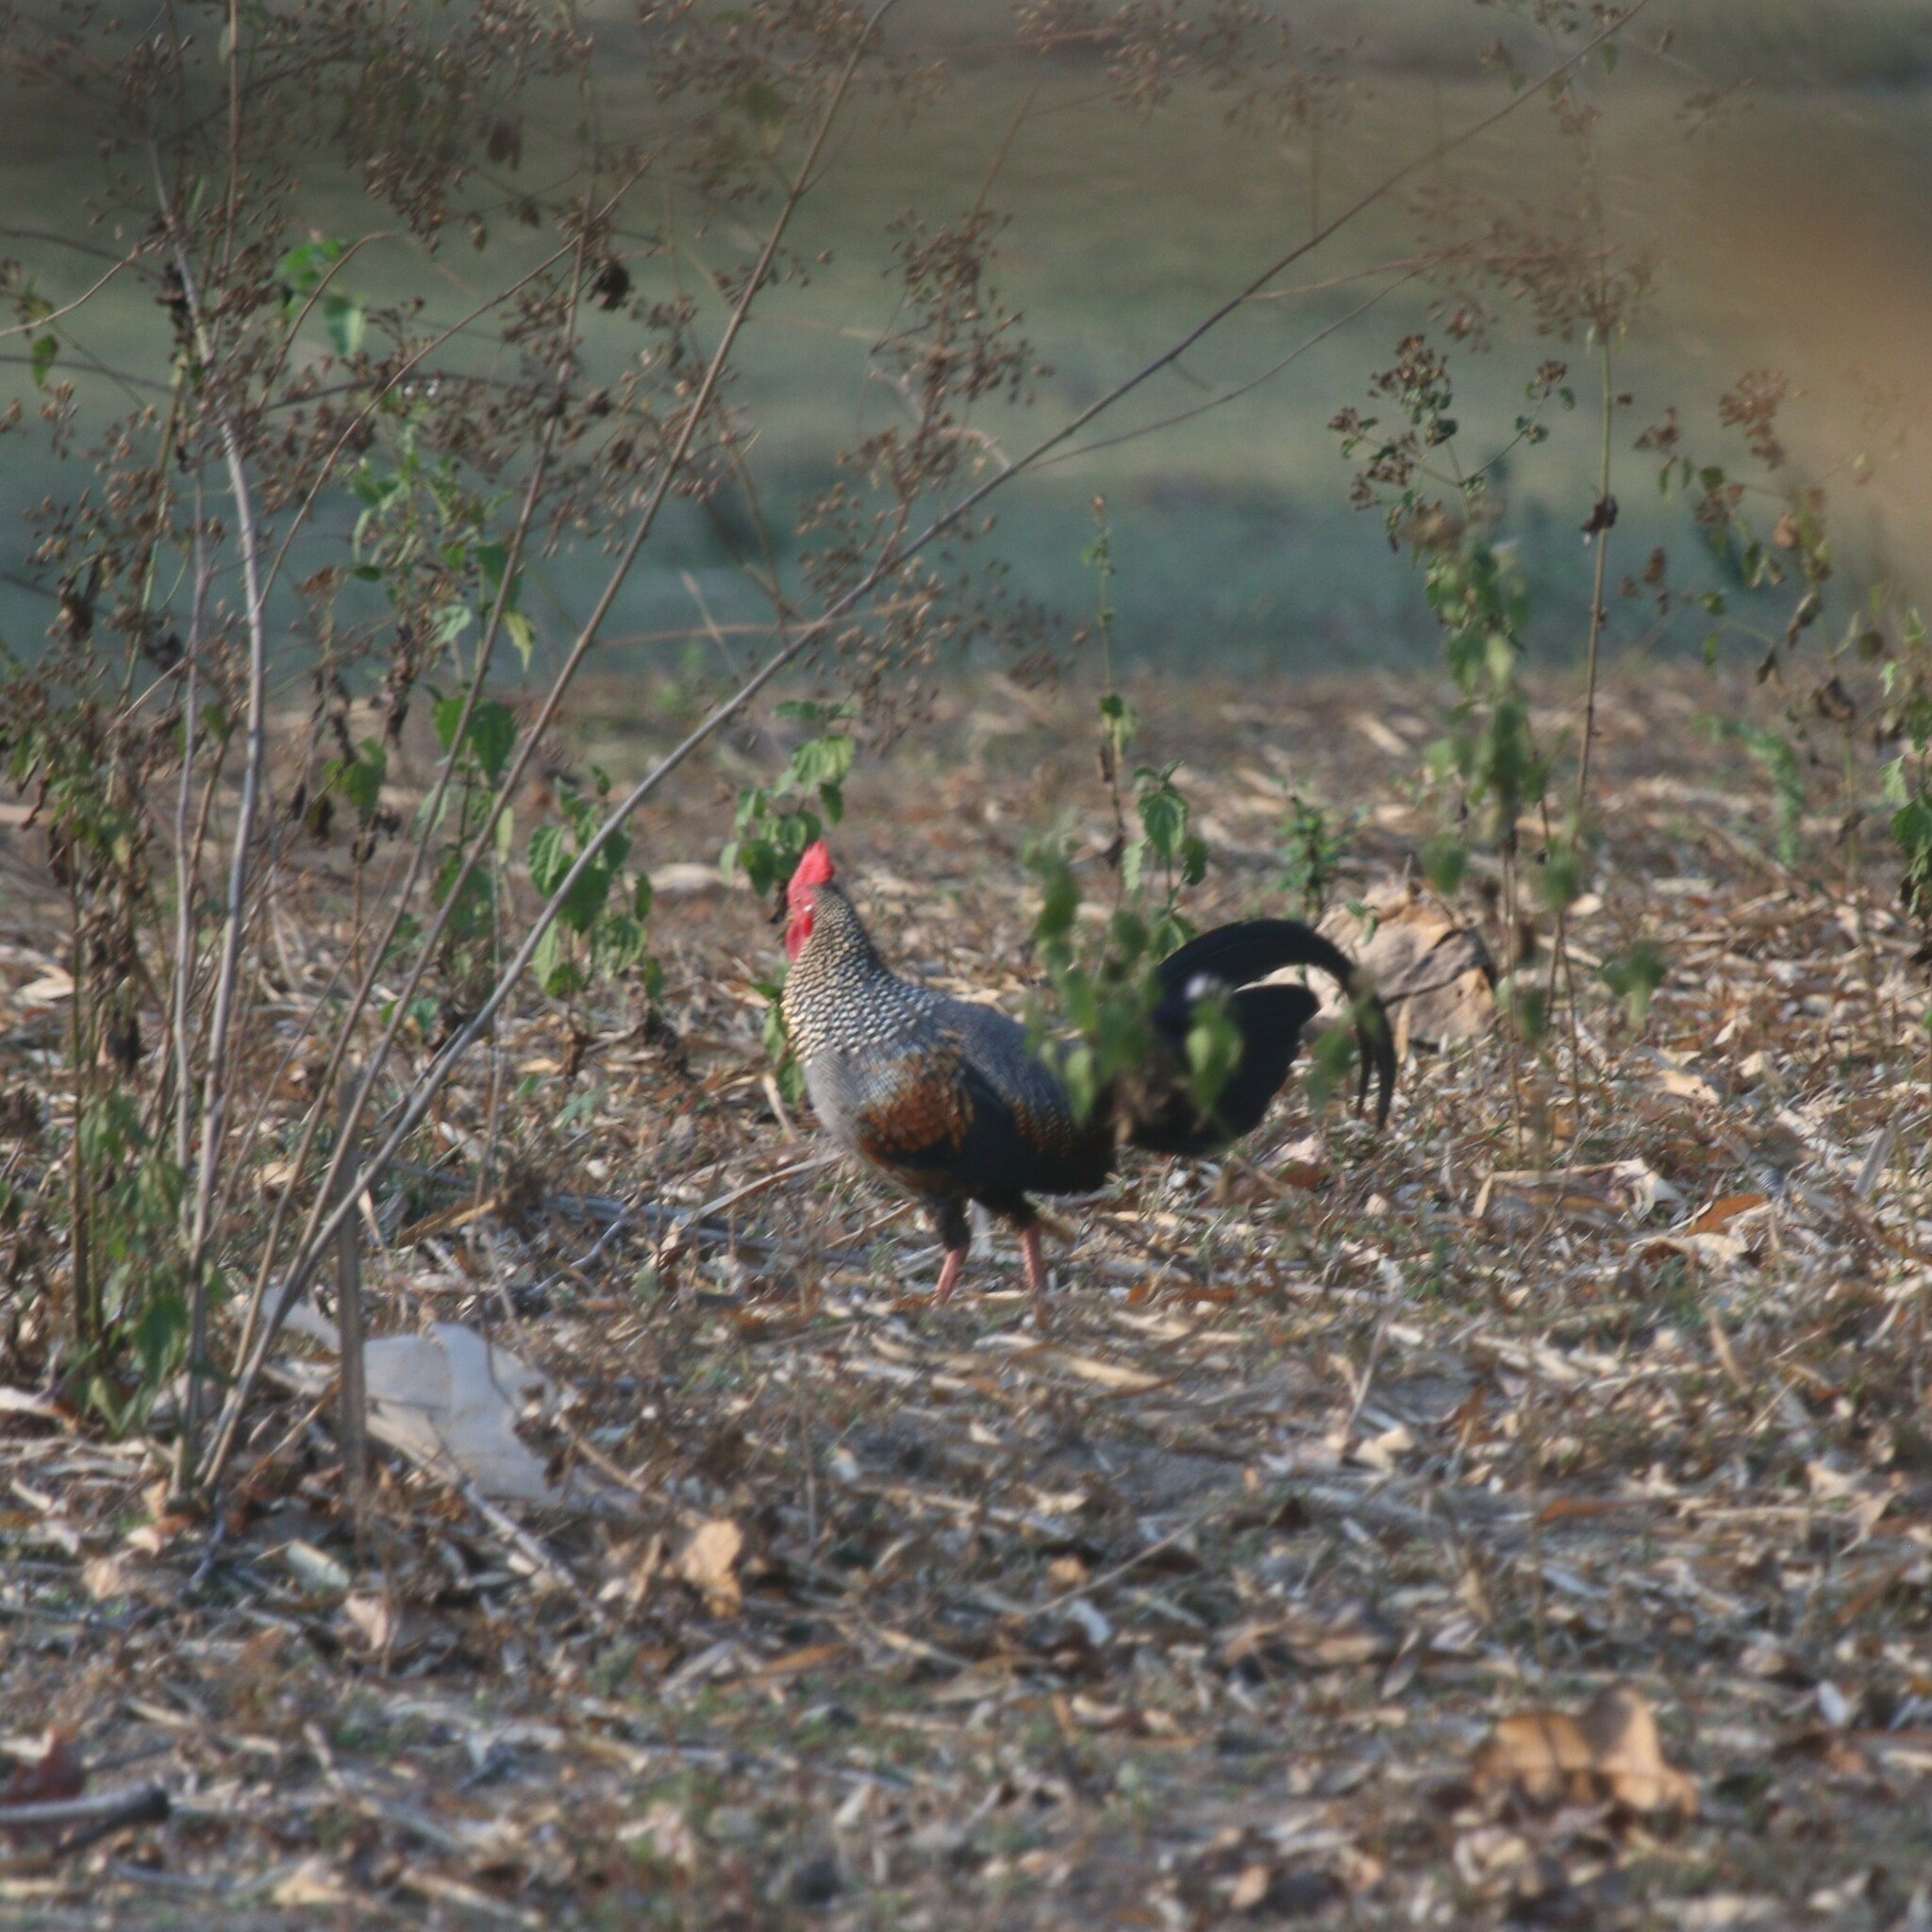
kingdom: Animalia
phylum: Chordata
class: Aves
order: Galliformes
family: Phasianidae
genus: Gallus
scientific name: Gallus sonneratii
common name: Grey junglefowl
